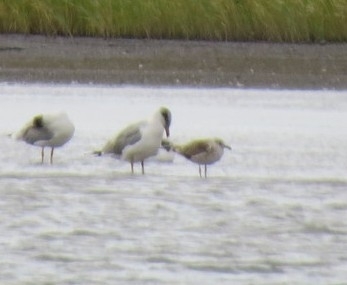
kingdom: Animalia
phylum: Chordata
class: Aves
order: Charadriiformes
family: Laridae
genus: Ichthyaetus
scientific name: Ichthyaetus ichthyaetus
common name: Pallas's gull
